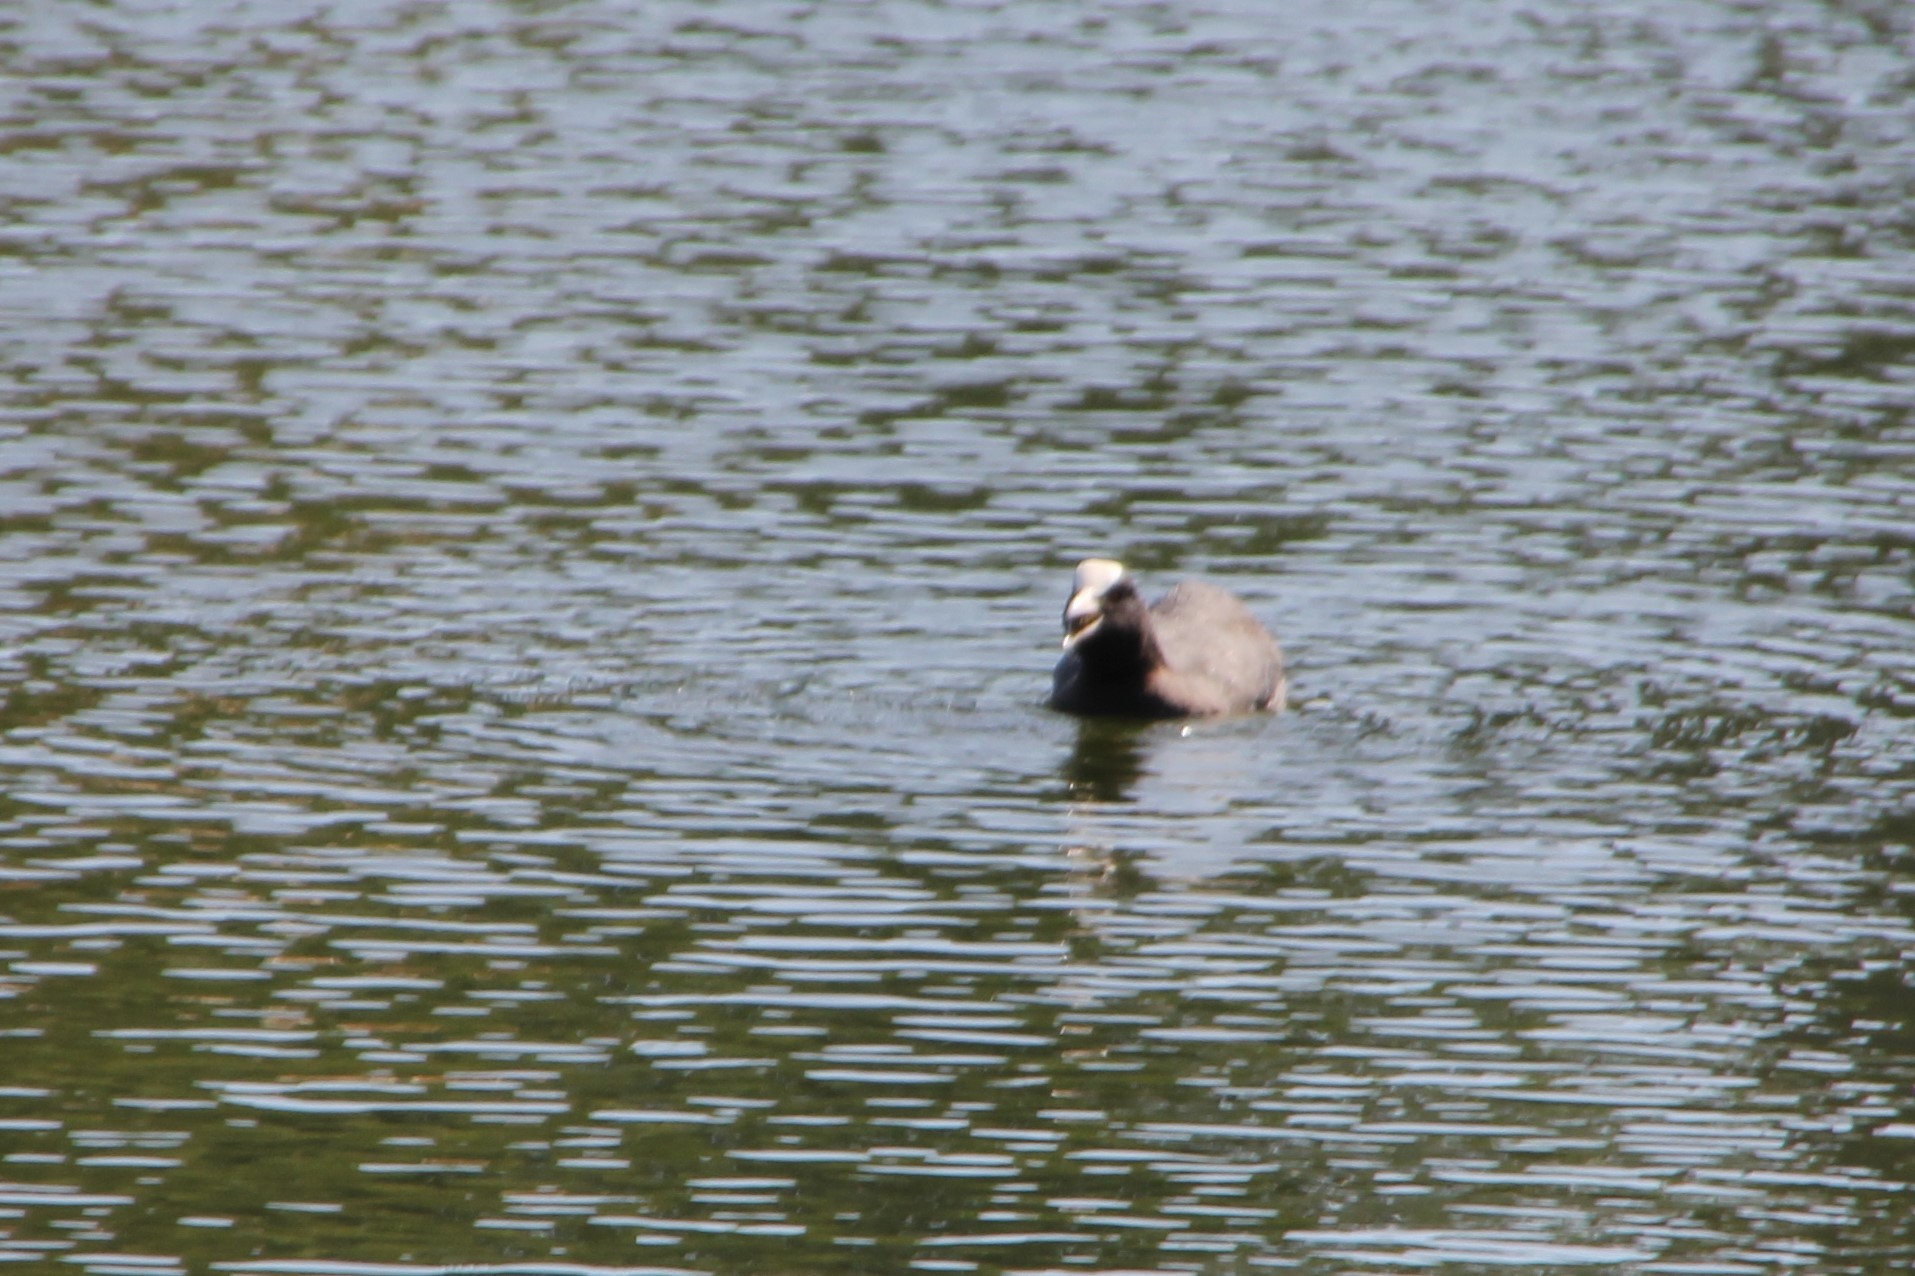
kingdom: Animalia
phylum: Chordata
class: Aves
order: Gruiformes
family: Rallidae
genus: Fulica
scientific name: Fulica atra
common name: Eurasian coot
